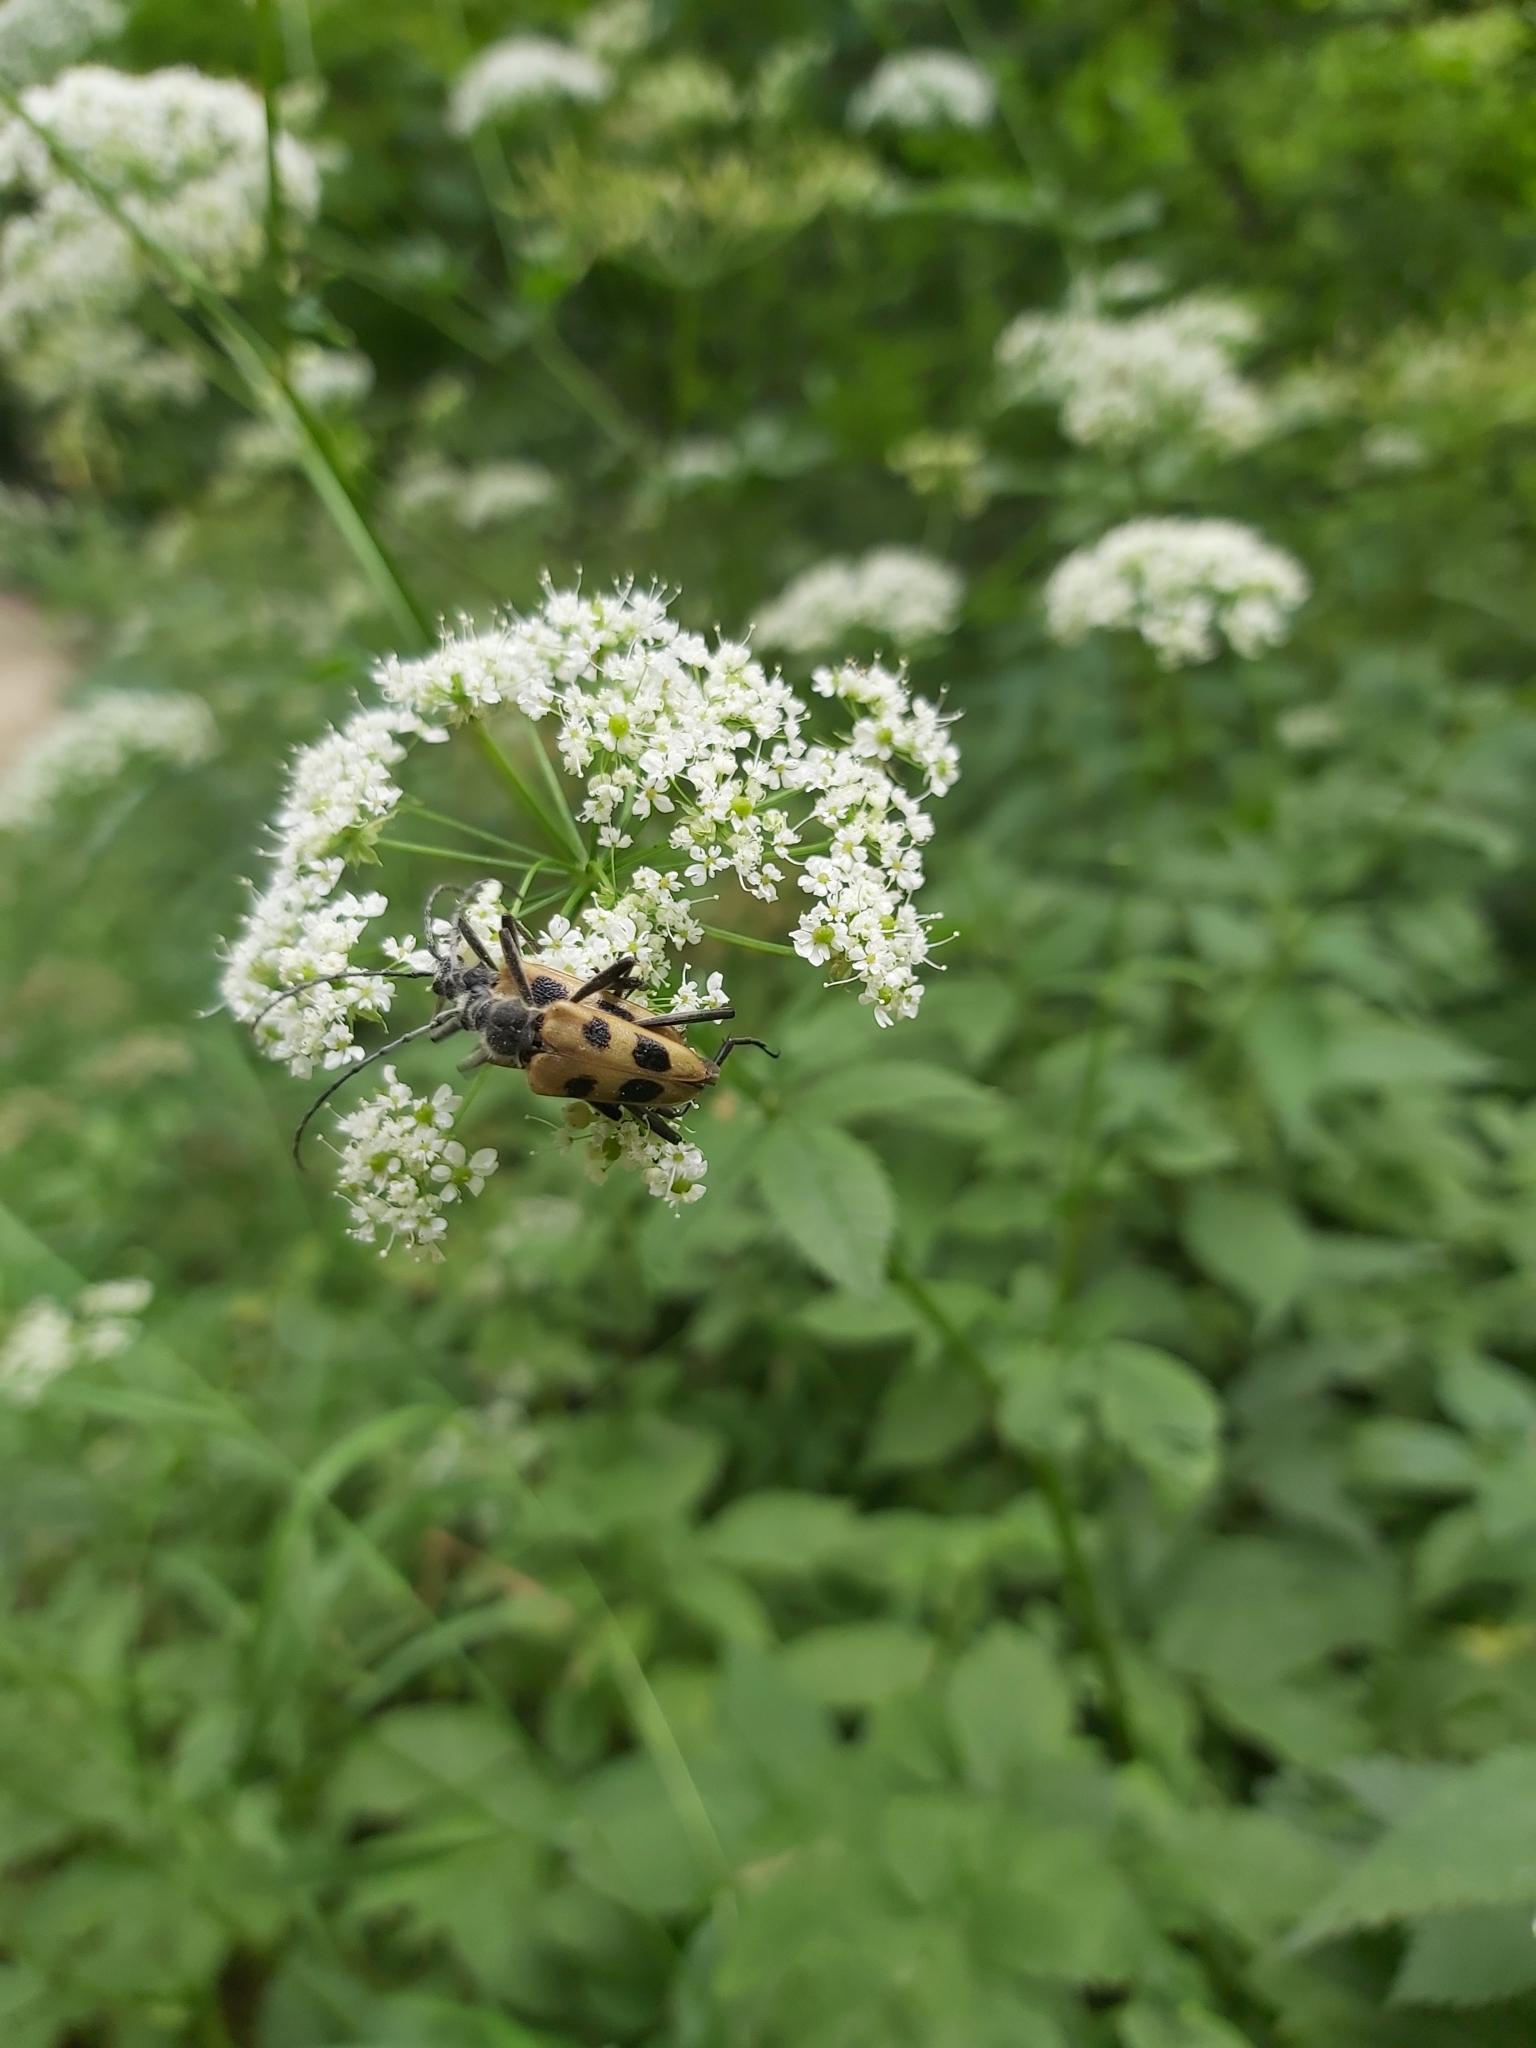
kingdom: Animalia
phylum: Arthropoda
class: Insecta
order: Coleoptera
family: Cerambycidae
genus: Pachyta
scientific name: Pachyta quadrimaculata
